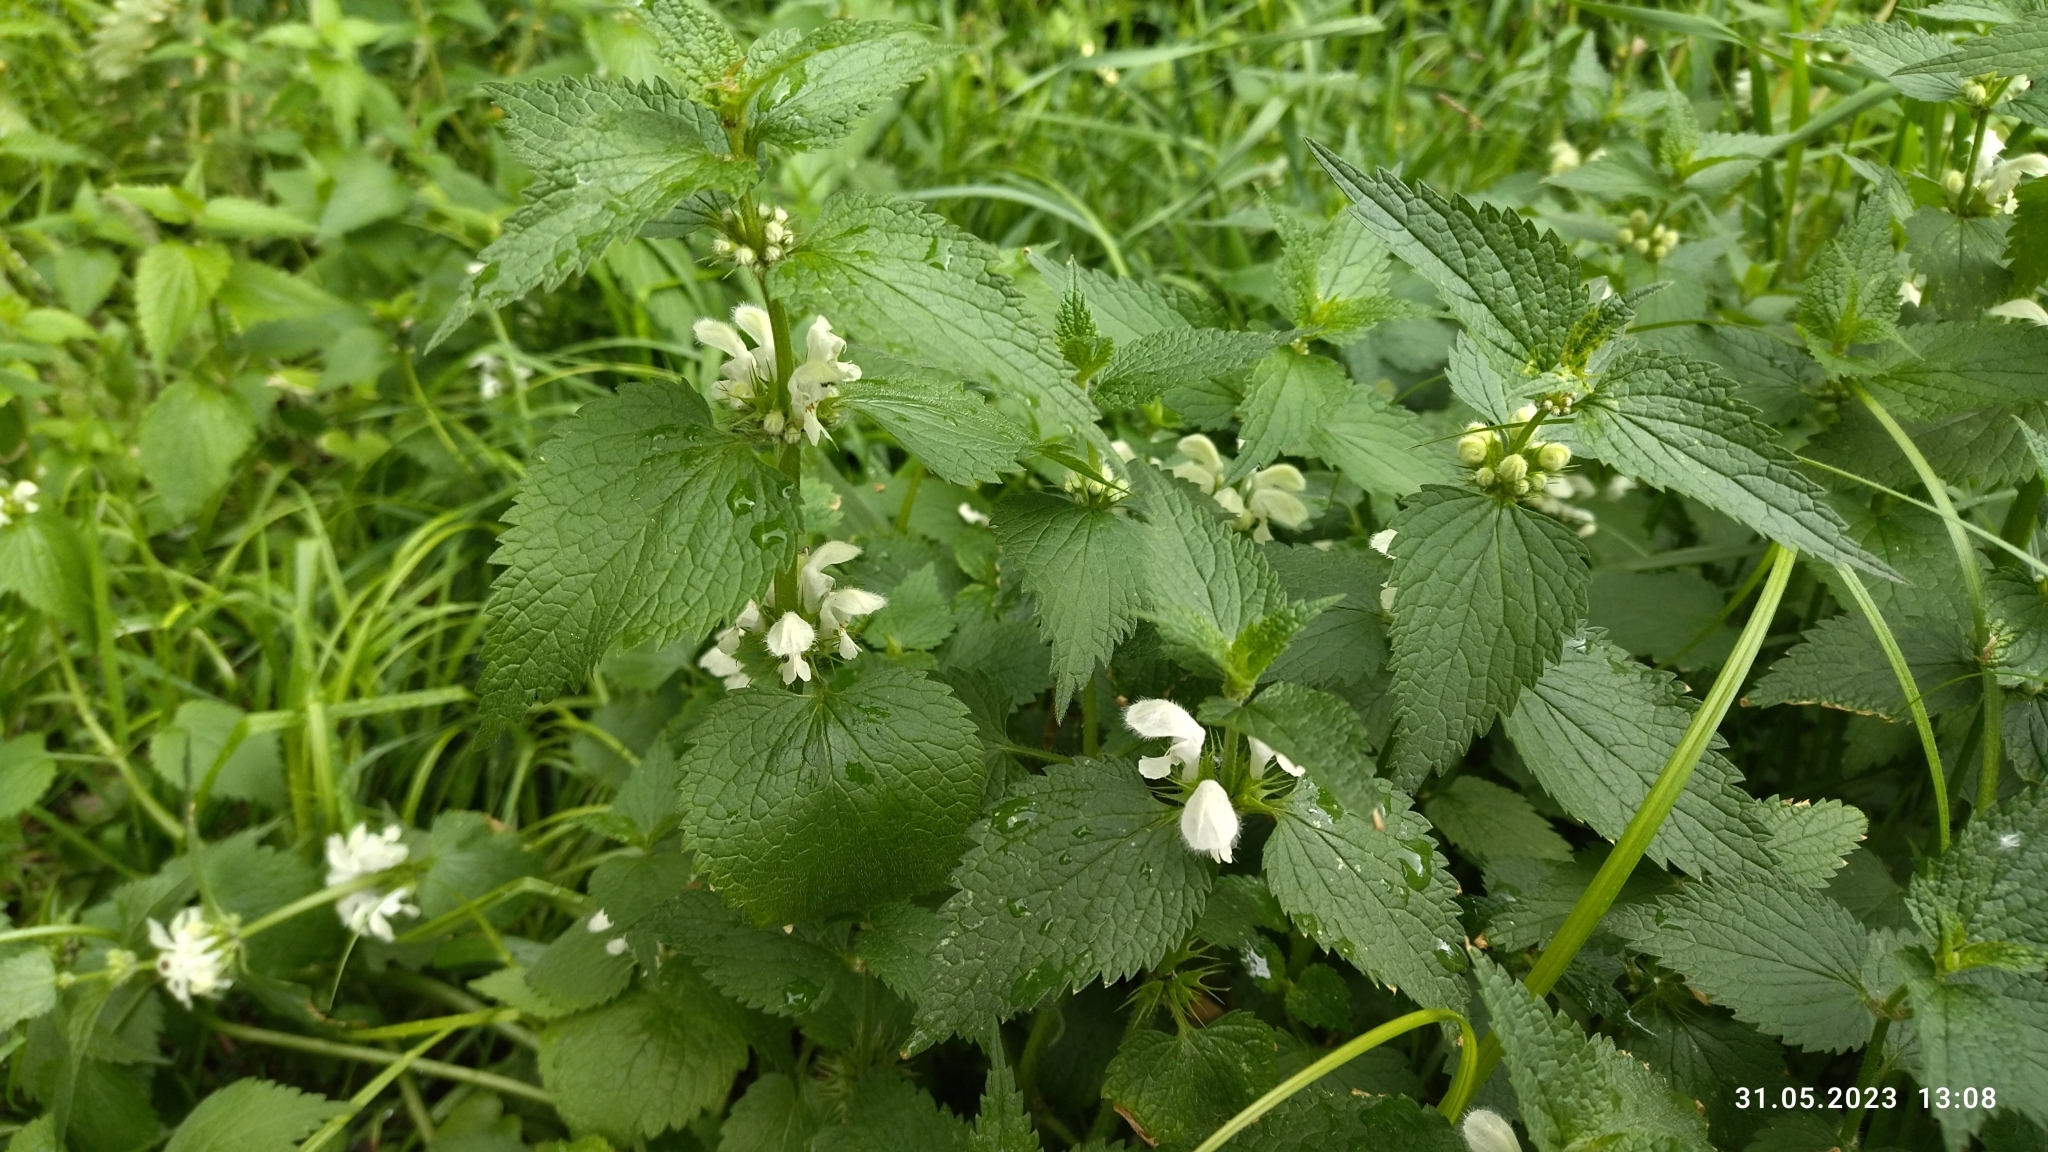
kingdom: Plantae
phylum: Tracheophyta
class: Magnoliopsida
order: Lamiales
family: Lamiaceae
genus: Lamium
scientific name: Lamium album
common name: White dead-nettle
